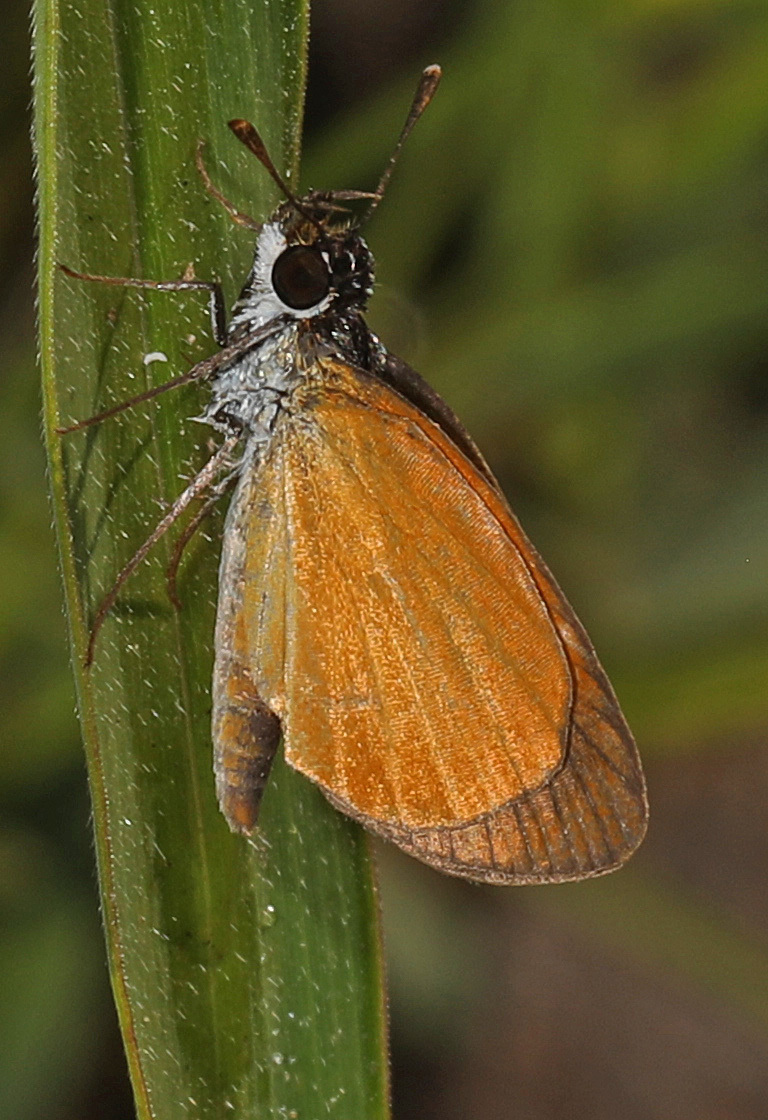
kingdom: Animalia
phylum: Arthropoda
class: Insecta
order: Lepidoptera
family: Hesperiidae
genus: Ancyloxypha
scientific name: Ancyloxypha numitor
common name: Least skipper
